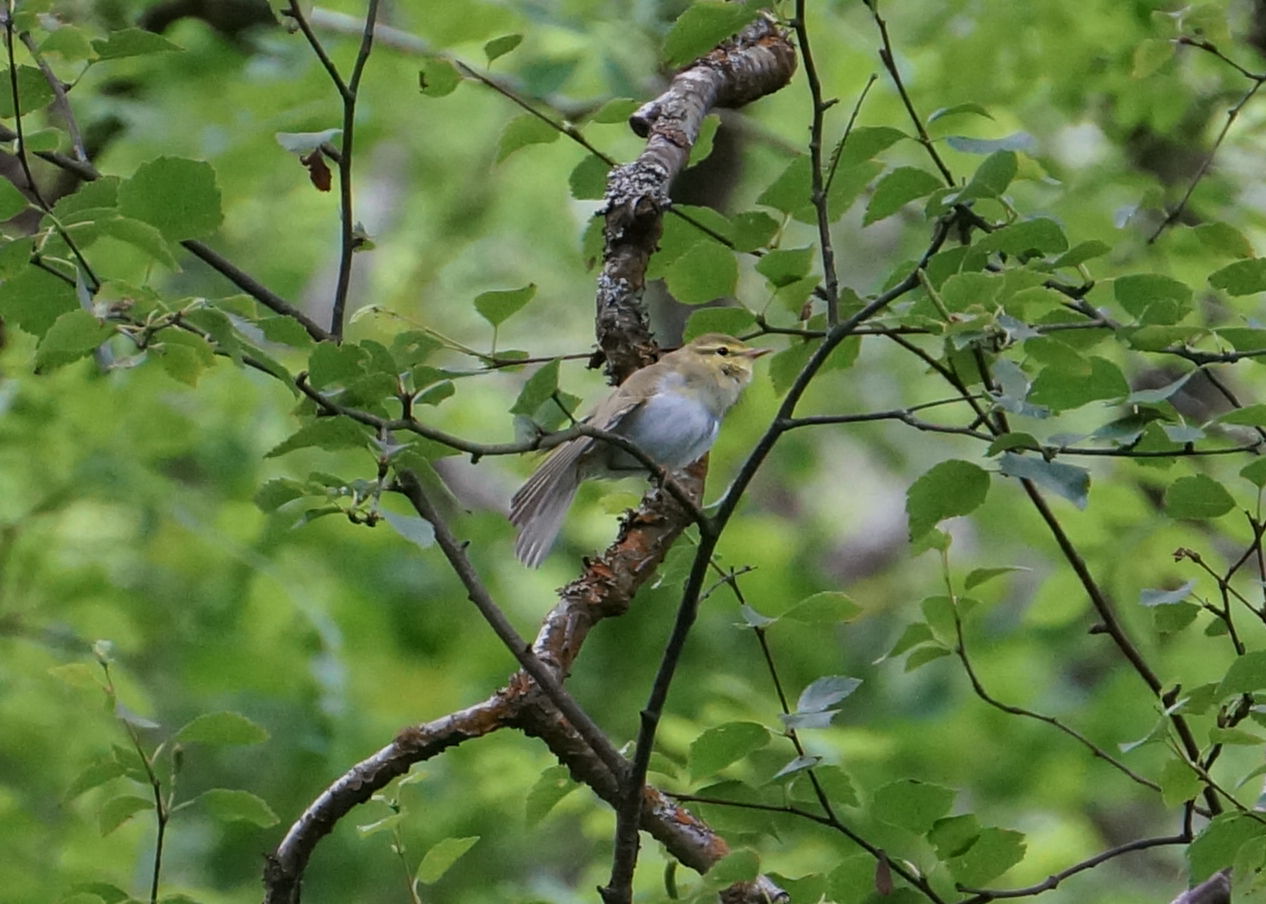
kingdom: Animalia
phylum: Chordata
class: Aves
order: Passeriformes
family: Phylloscopidae
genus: Phylloscopus
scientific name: Phylloscopus sibillatrix
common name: Wood warbler
